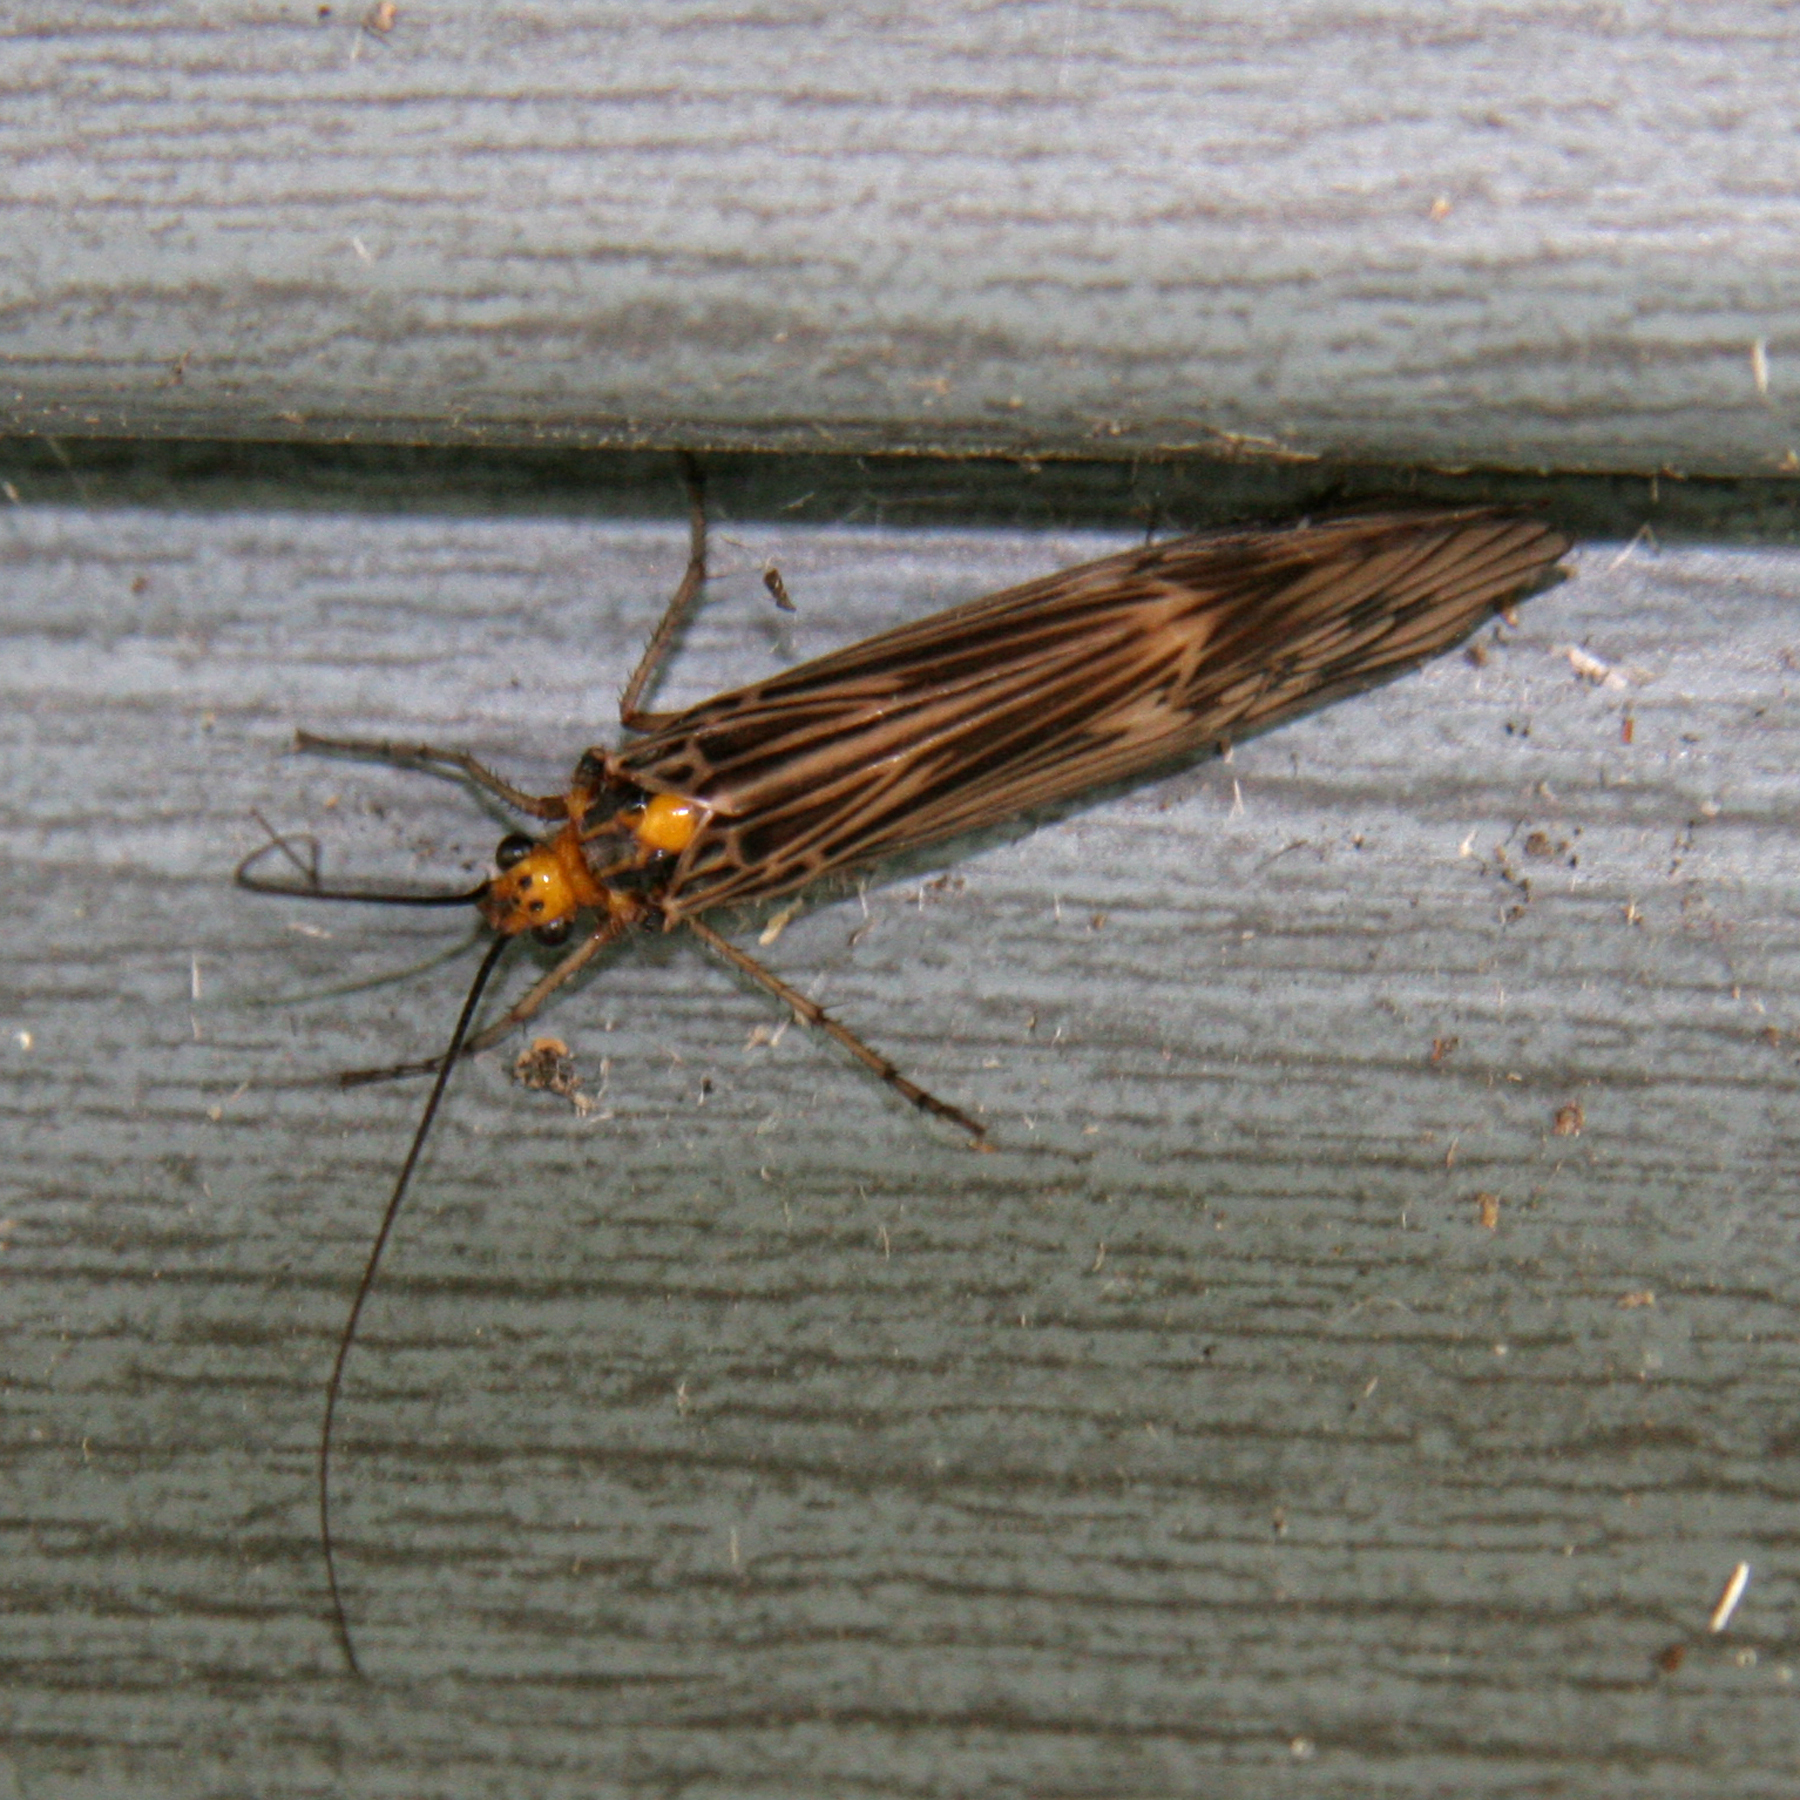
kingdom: Animalia
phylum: Arthropoda
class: Insecta
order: Trichoptera
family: Limnephilidae
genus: Hydatophylax
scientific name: Hydatophylax argus
